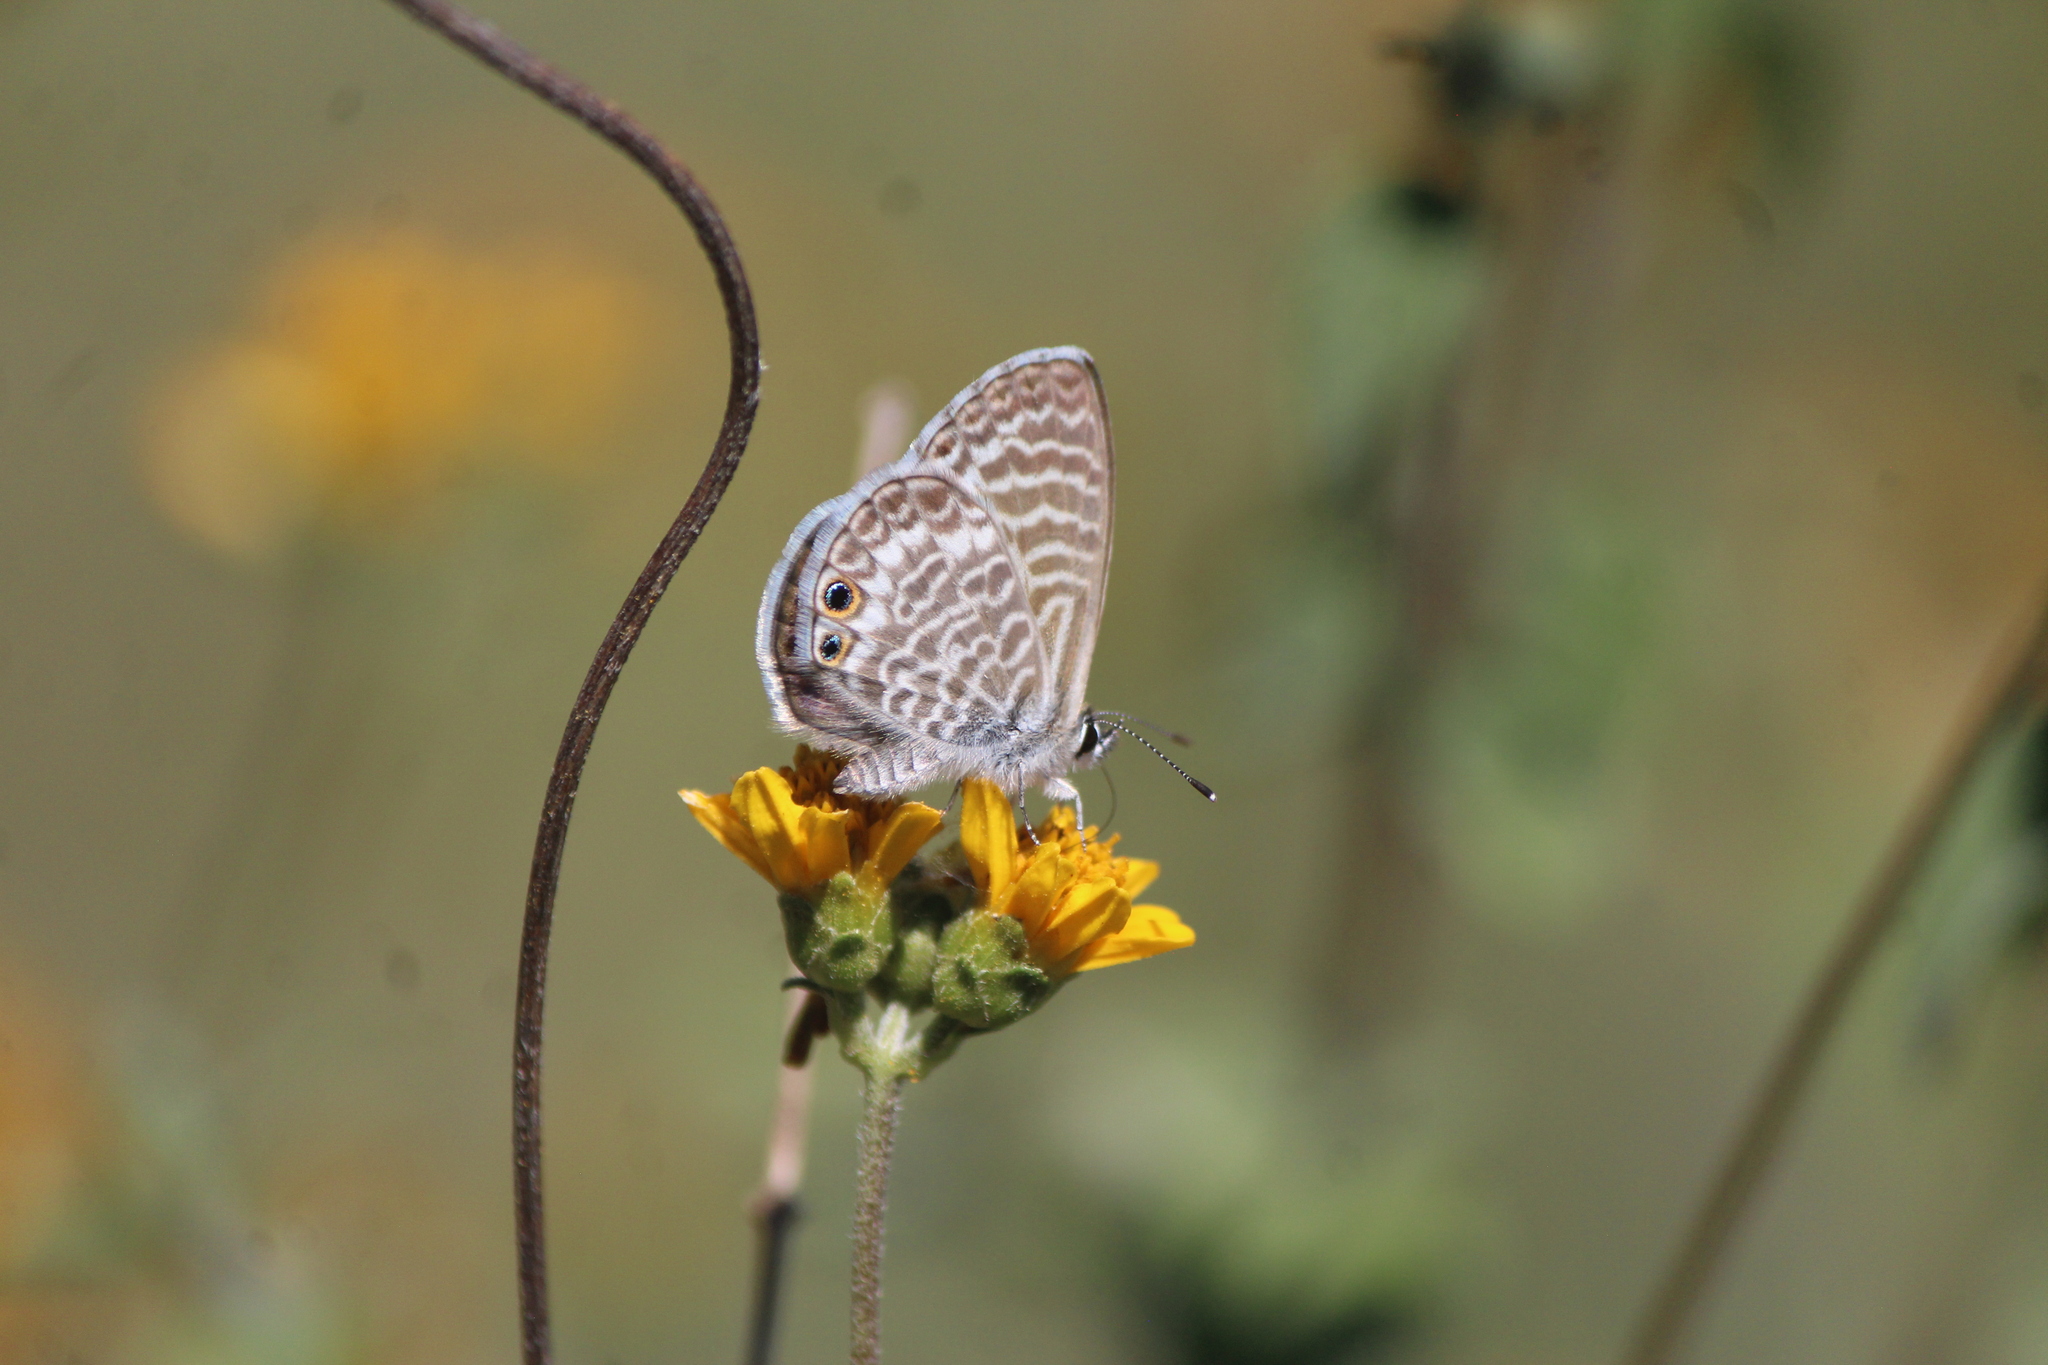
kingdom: Animalia
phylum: Arthropoda
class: Insecta
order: Lepidoptera
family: Lycaenidae
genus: Leptotes
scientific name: Leptotes marina
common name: Marine blue
